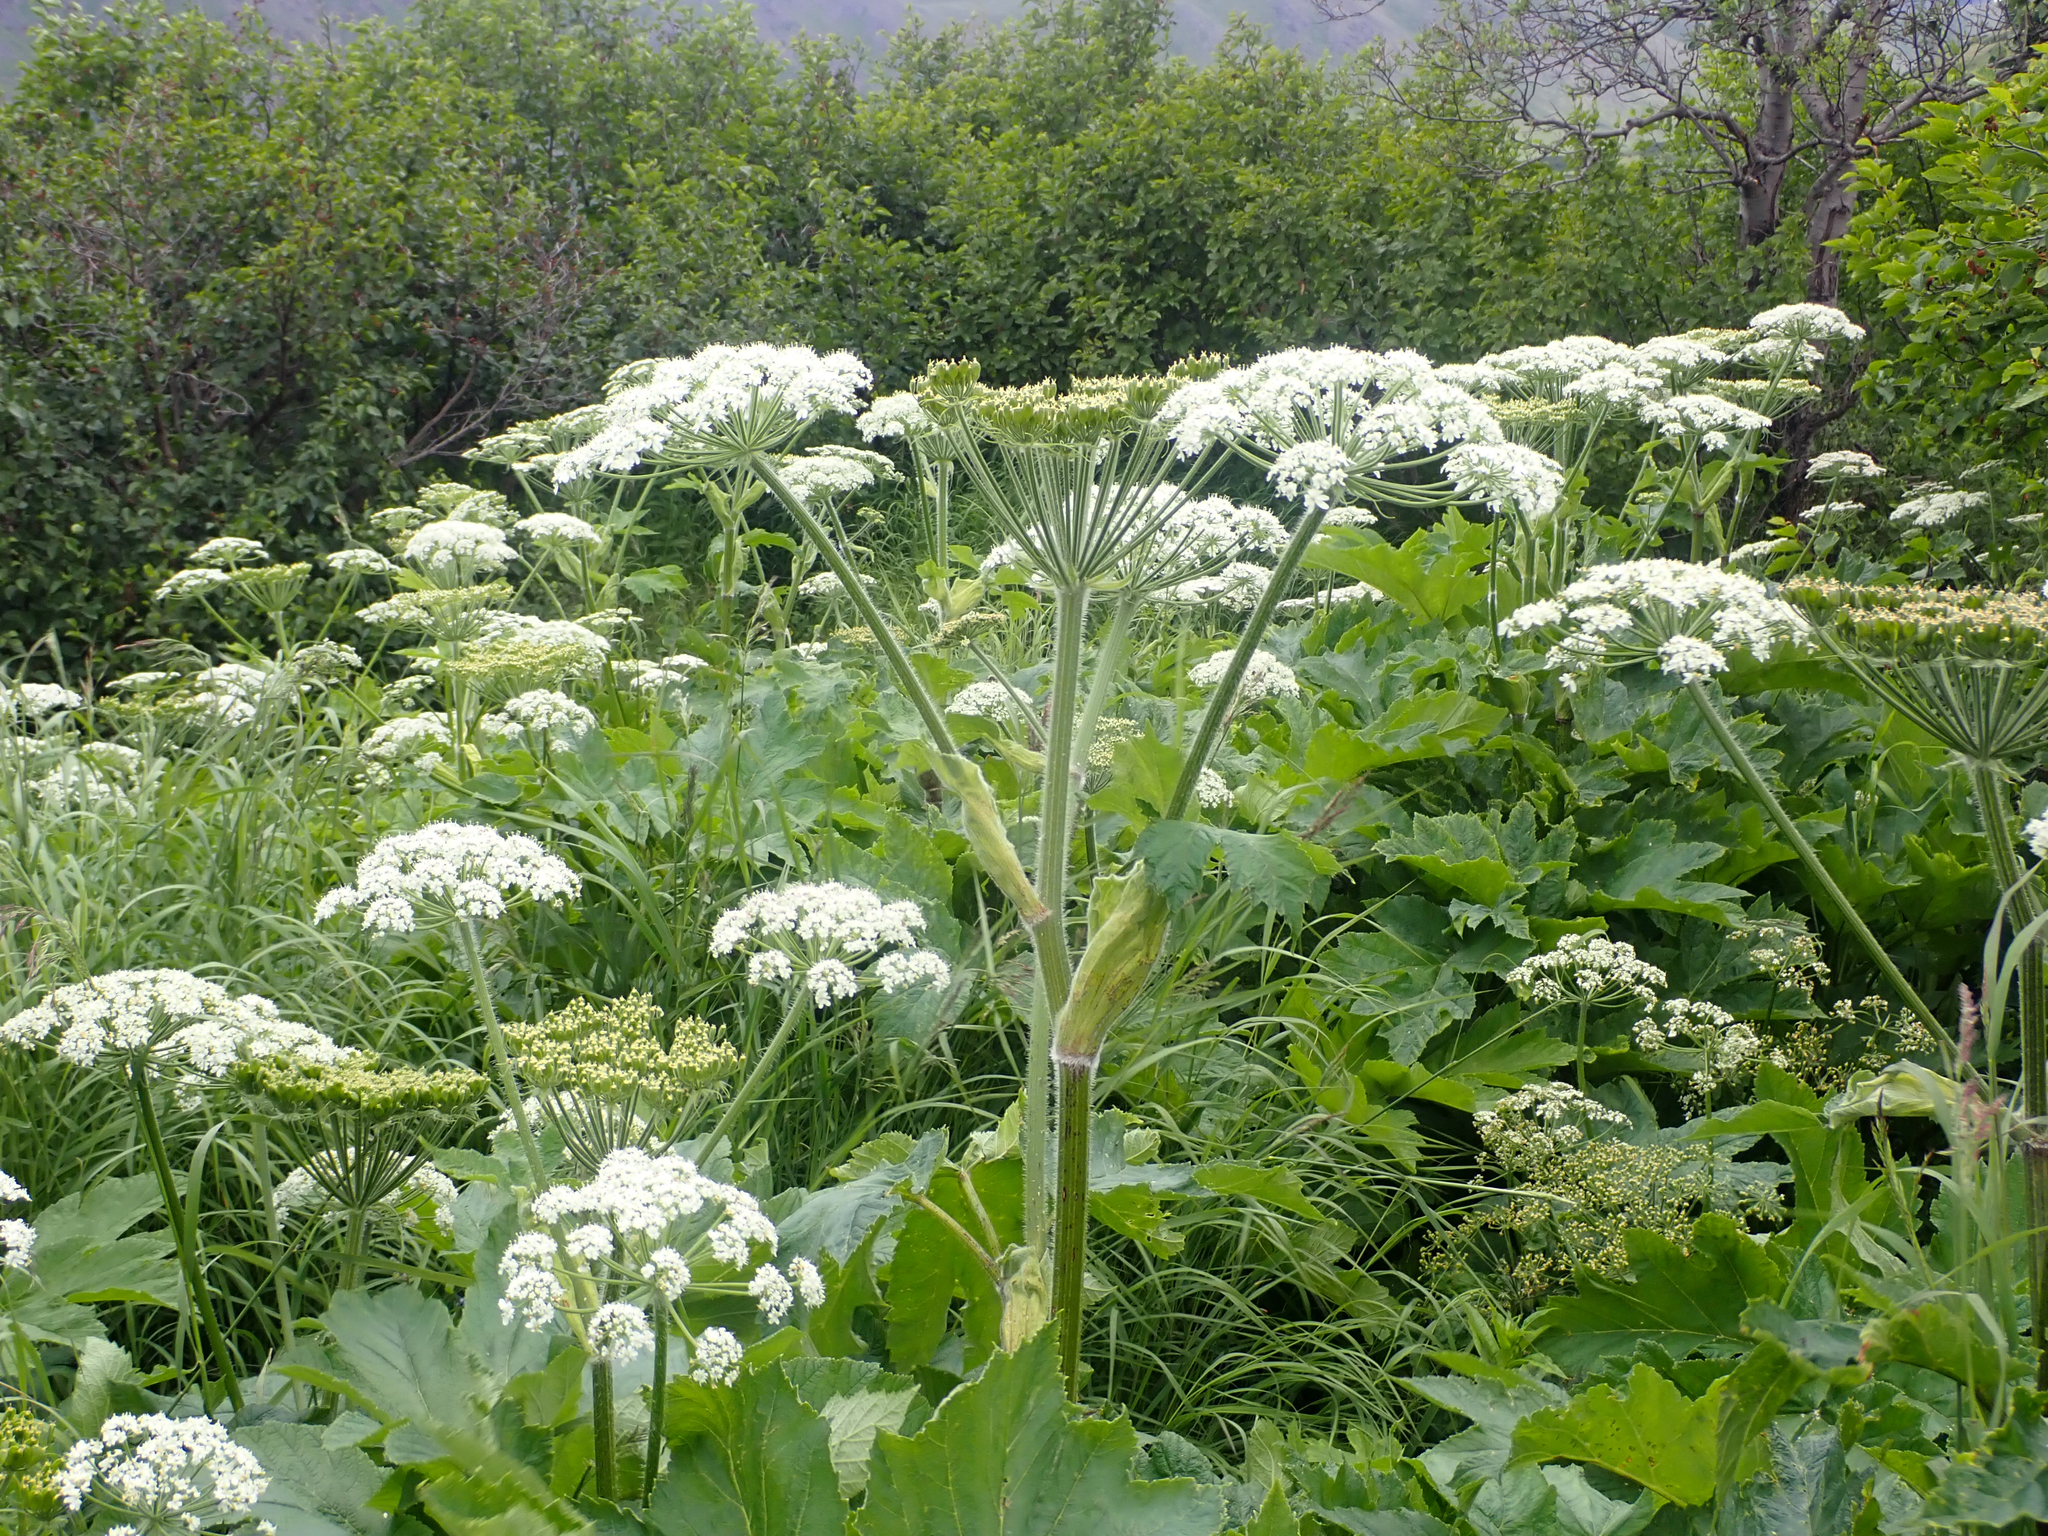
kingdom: Plantae
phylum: Tracheophyta
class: Magnoliopsida
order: Apiales
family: Apiaceae
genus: Heracleum
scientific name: Heracleum maximum
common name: American cow parsnip
